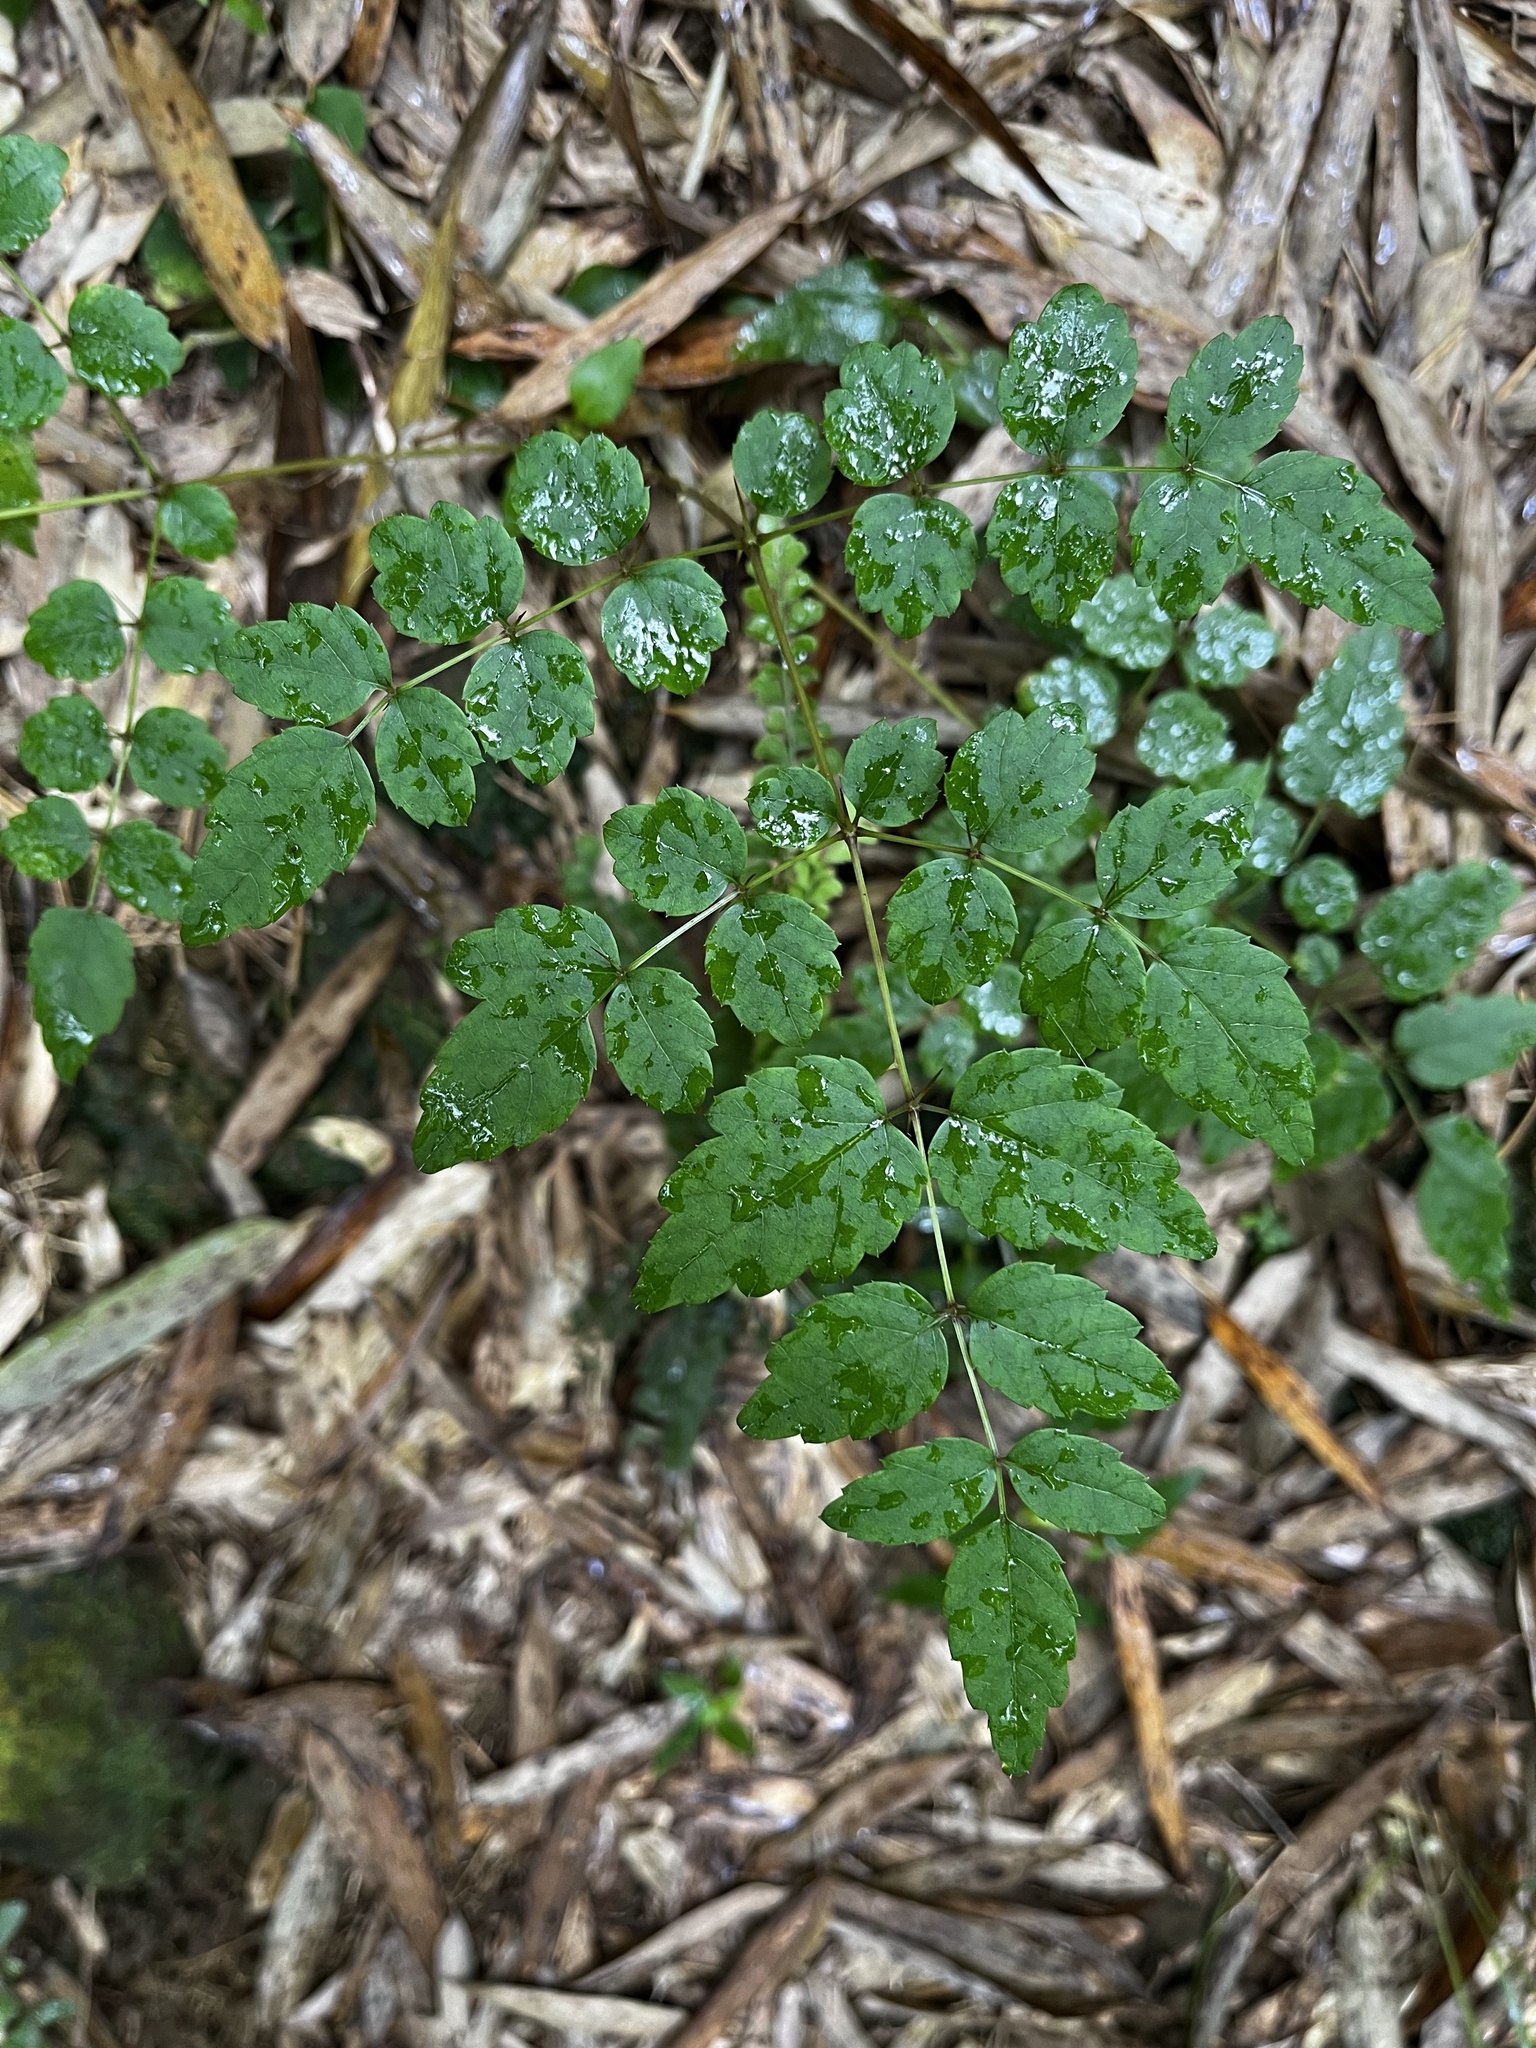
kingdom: Plantae
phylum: Tracheophyta
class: Magnoliopsida
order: Apiales
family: Araliaceae
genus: Aralia
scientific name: Aralia bipinnata
